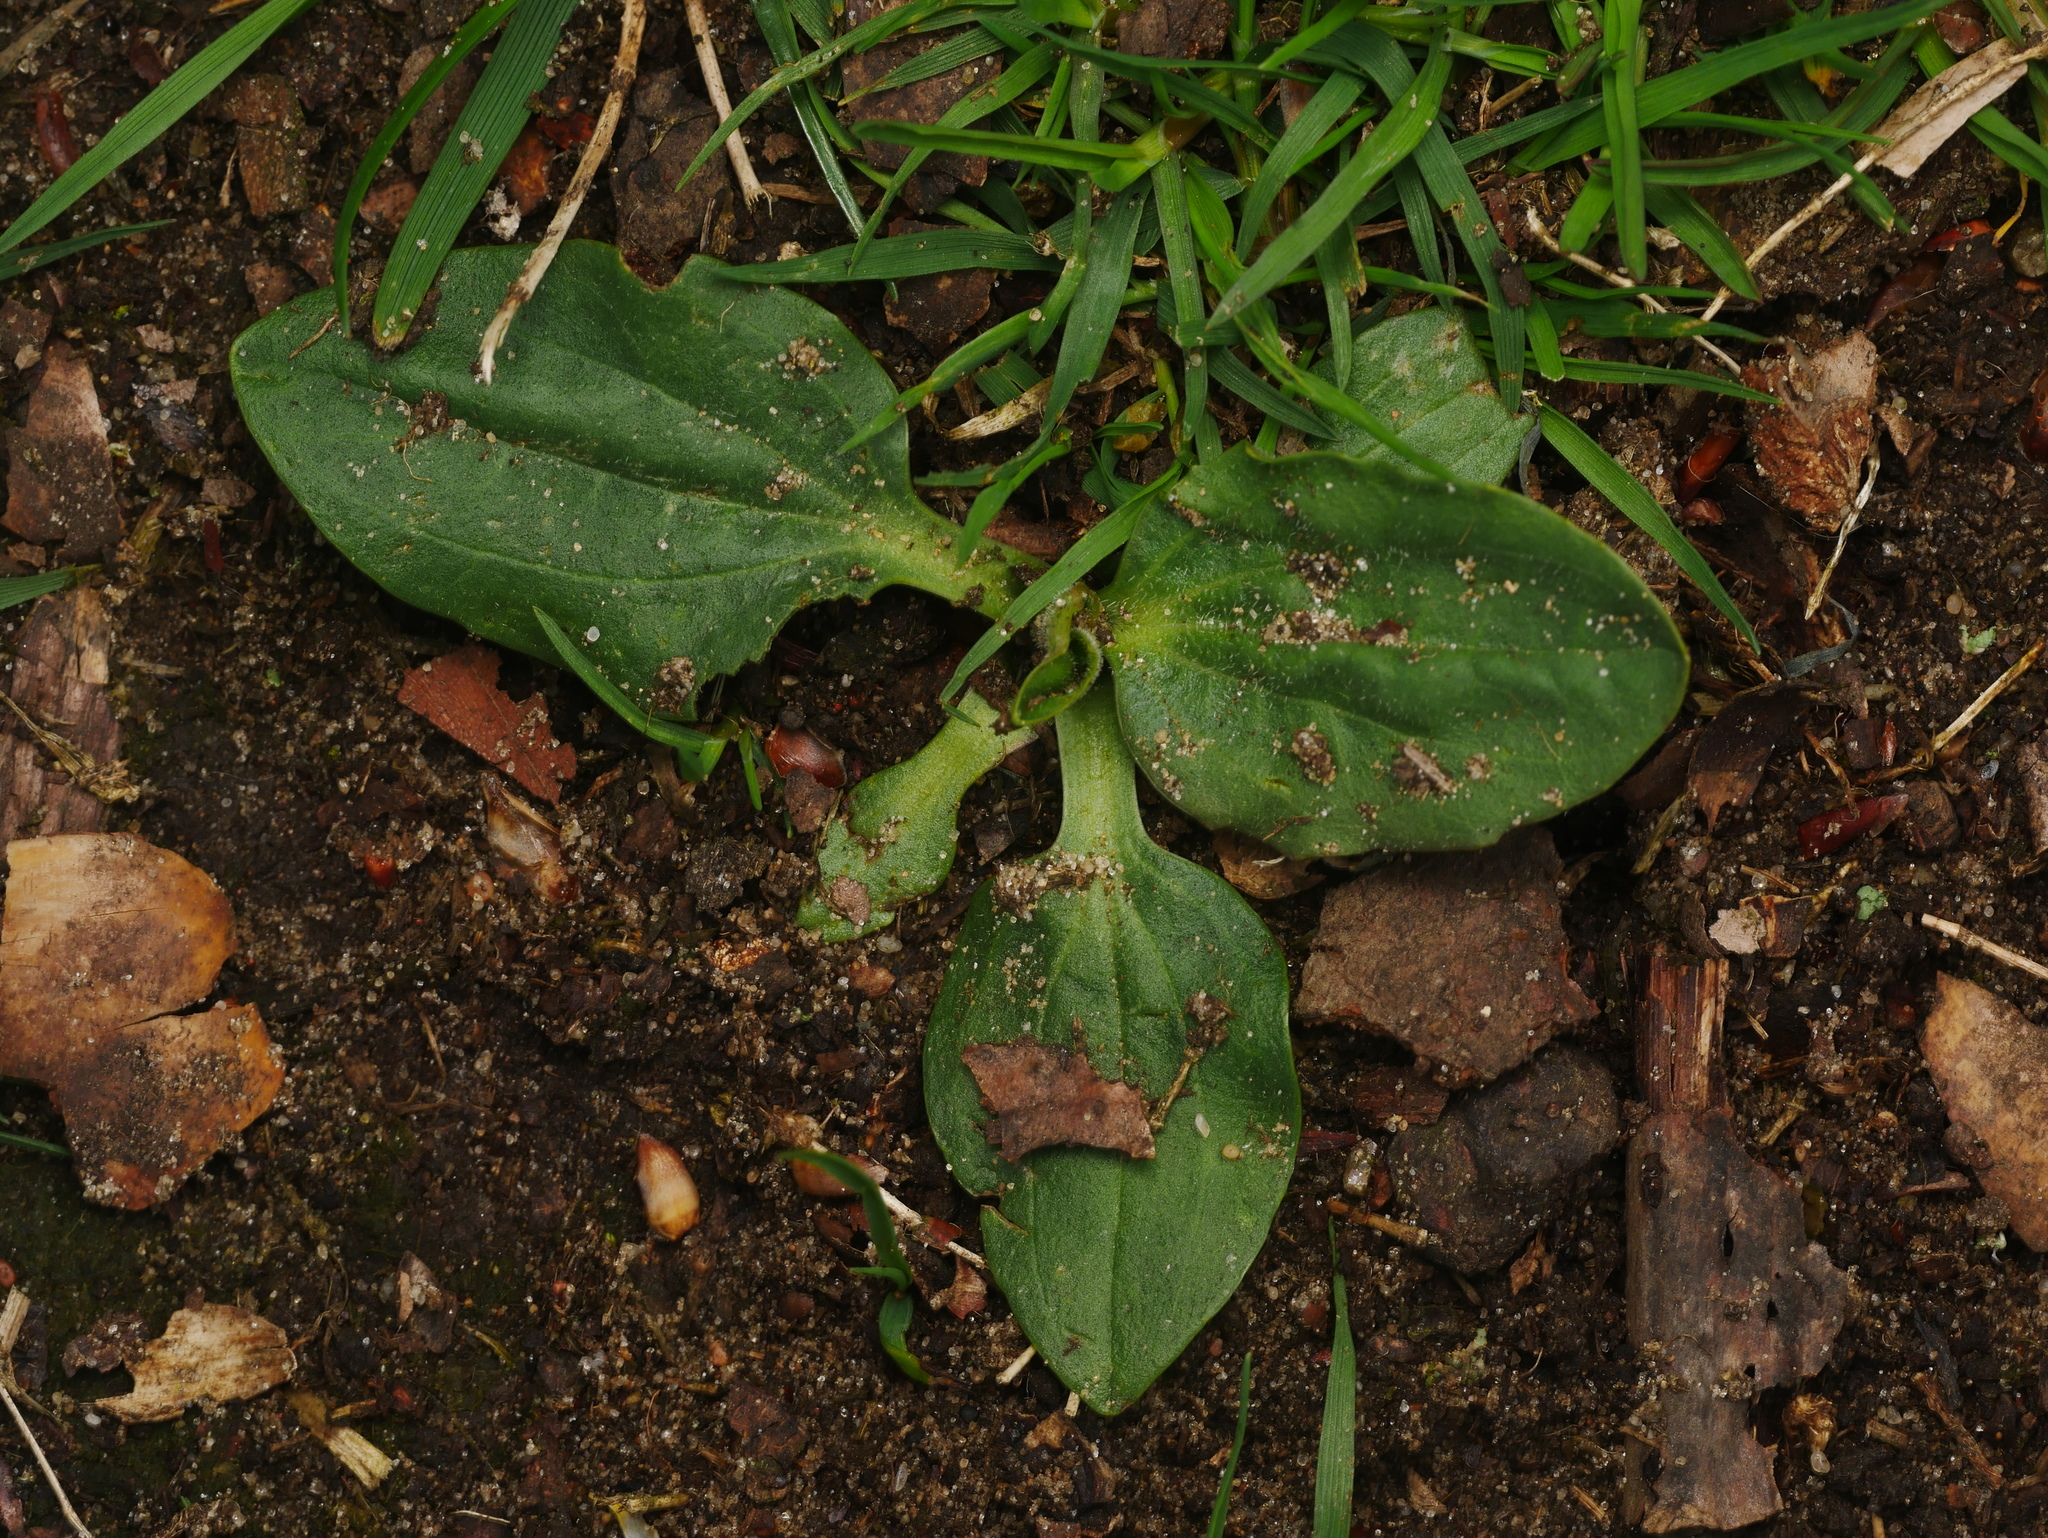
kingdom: Plantae
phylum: Tracheophyta
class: Magnoliopsida
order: Lamiales
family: Plantaginaceae
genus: Plantago
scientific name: Plantago major
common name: Common plantain
